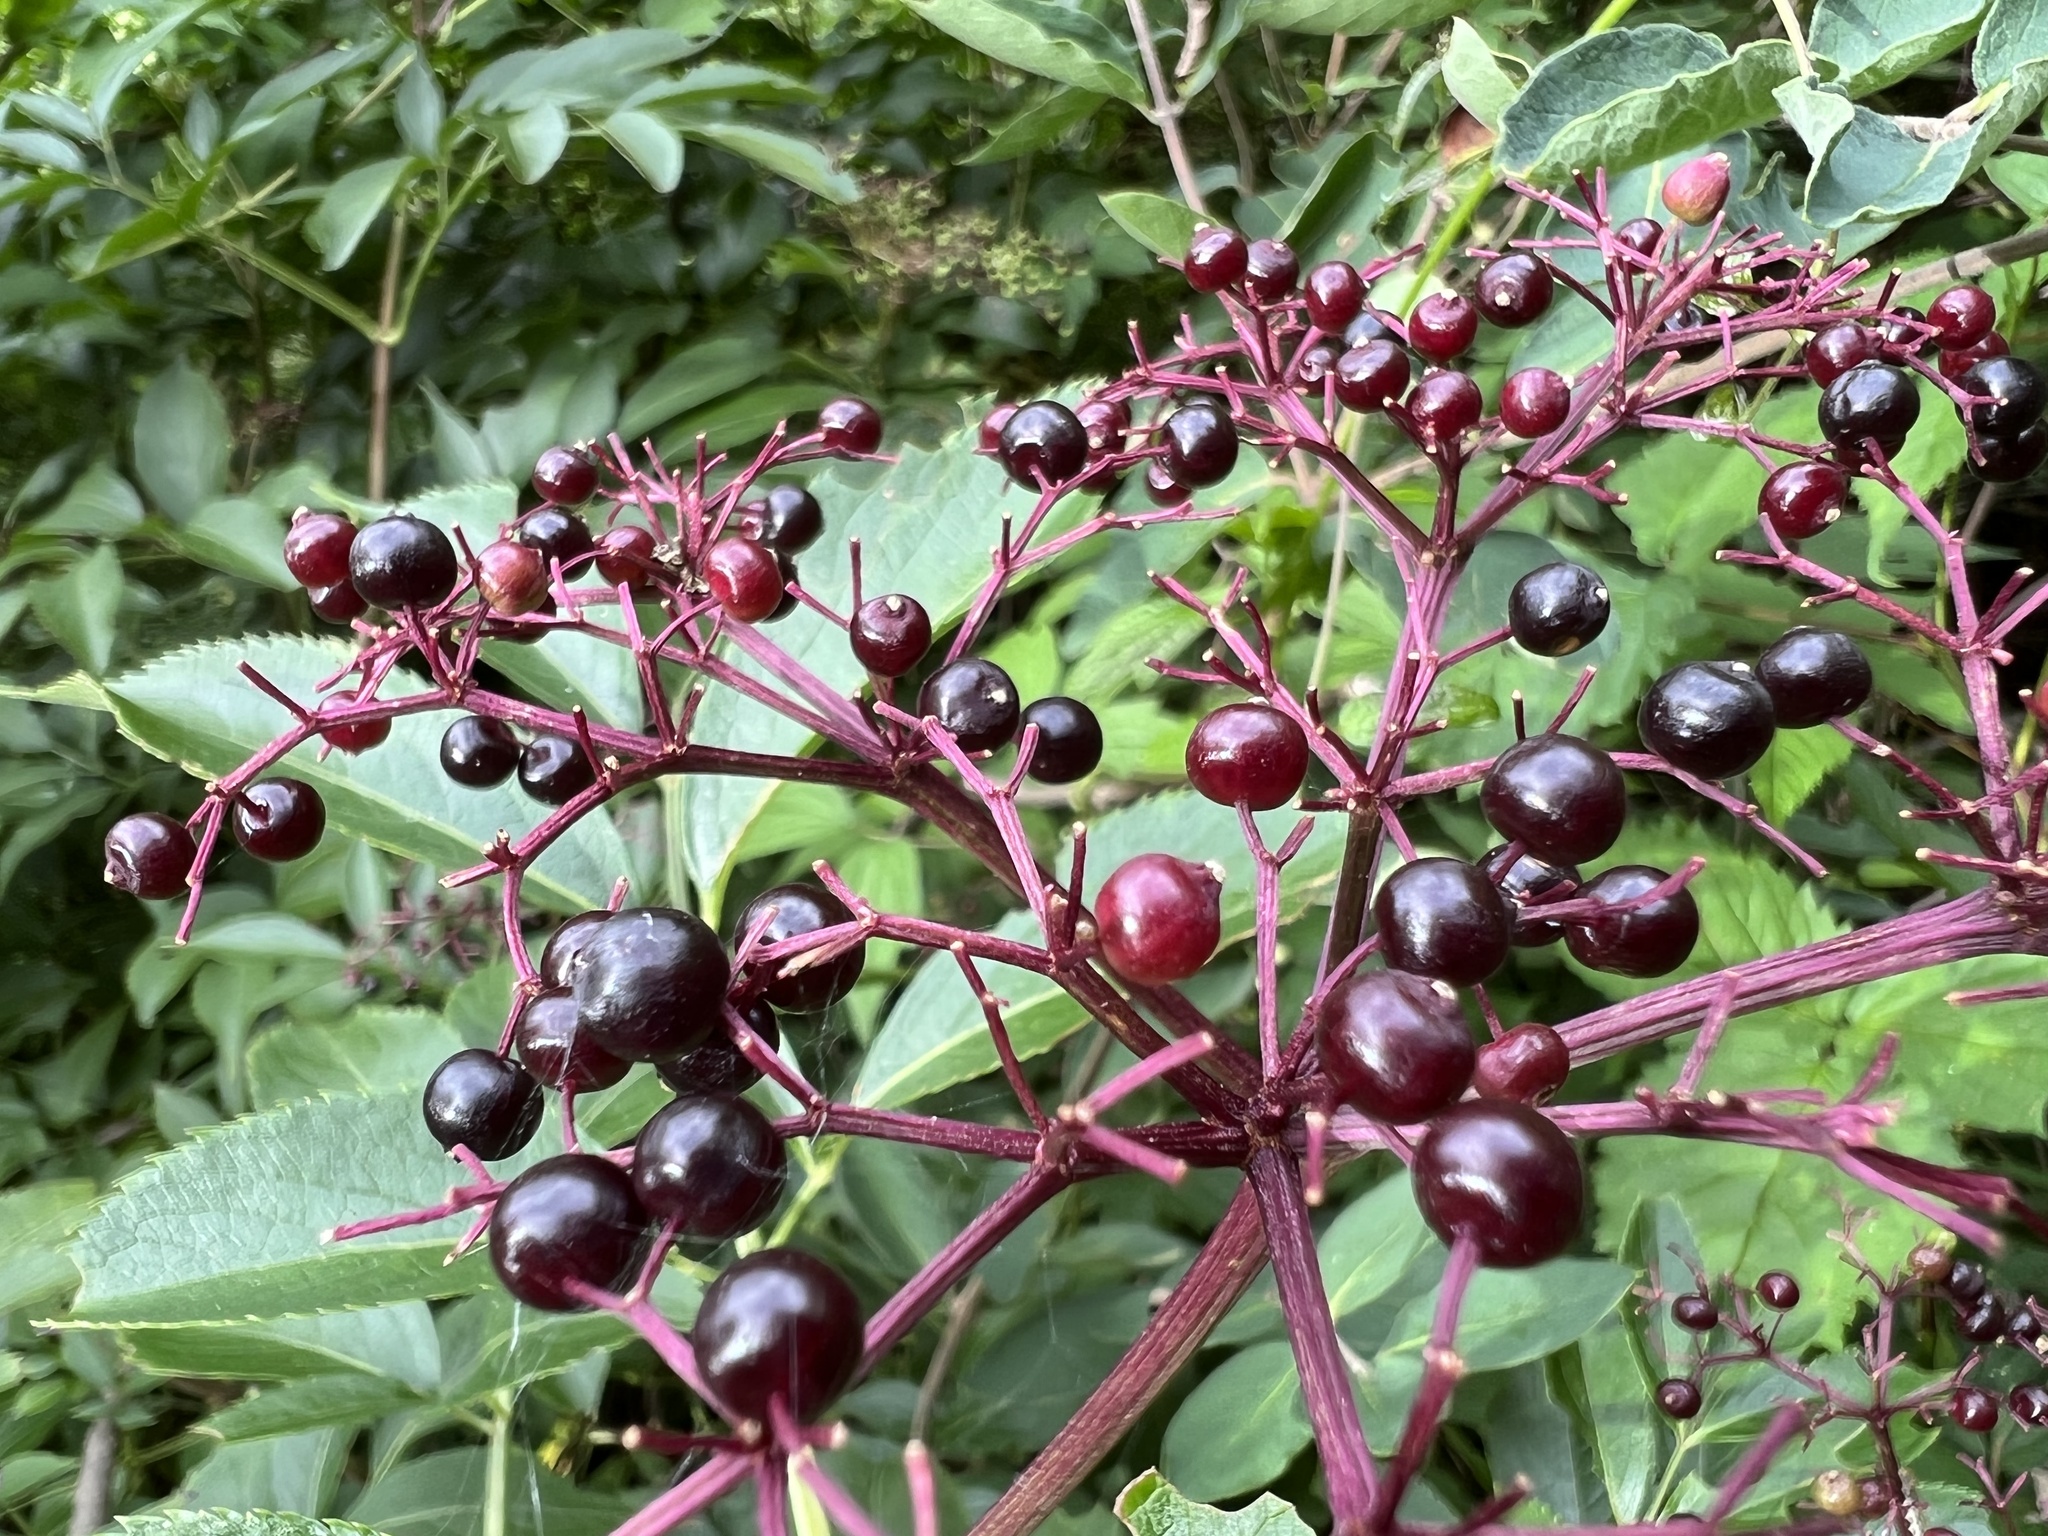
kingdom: Plantae
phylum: Tracheophyta
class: Magnoliopsida
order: Dipsacales
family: Viburnaceae
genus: Sambucus
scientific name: Sambucus canadensis
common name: American elder
